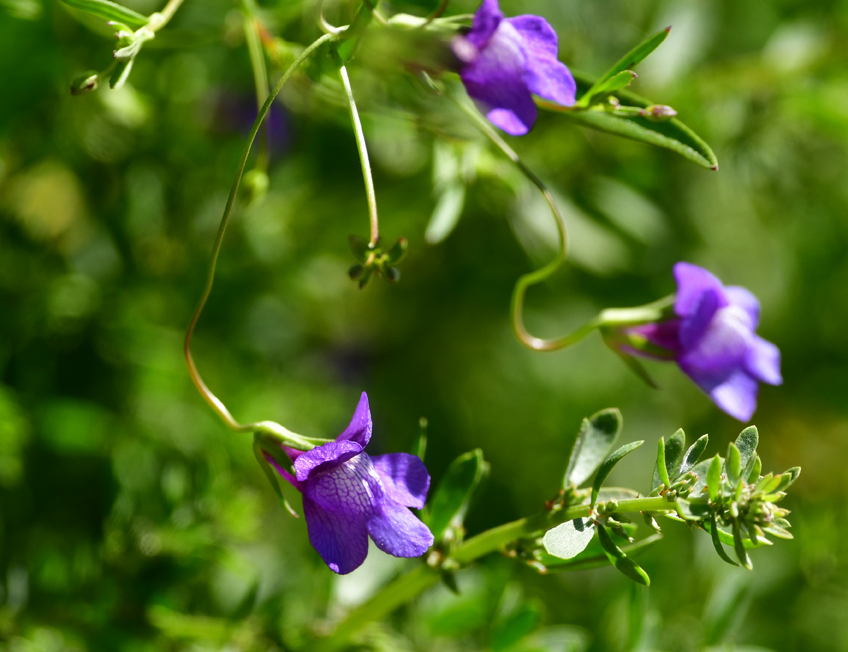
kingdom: Plantae
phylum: Tracheophyta
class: Magnoliopsida
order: Lamiales
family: Plantaginaceae
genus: Neogaerrhinum
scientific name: Neogaerrhinum strictum
